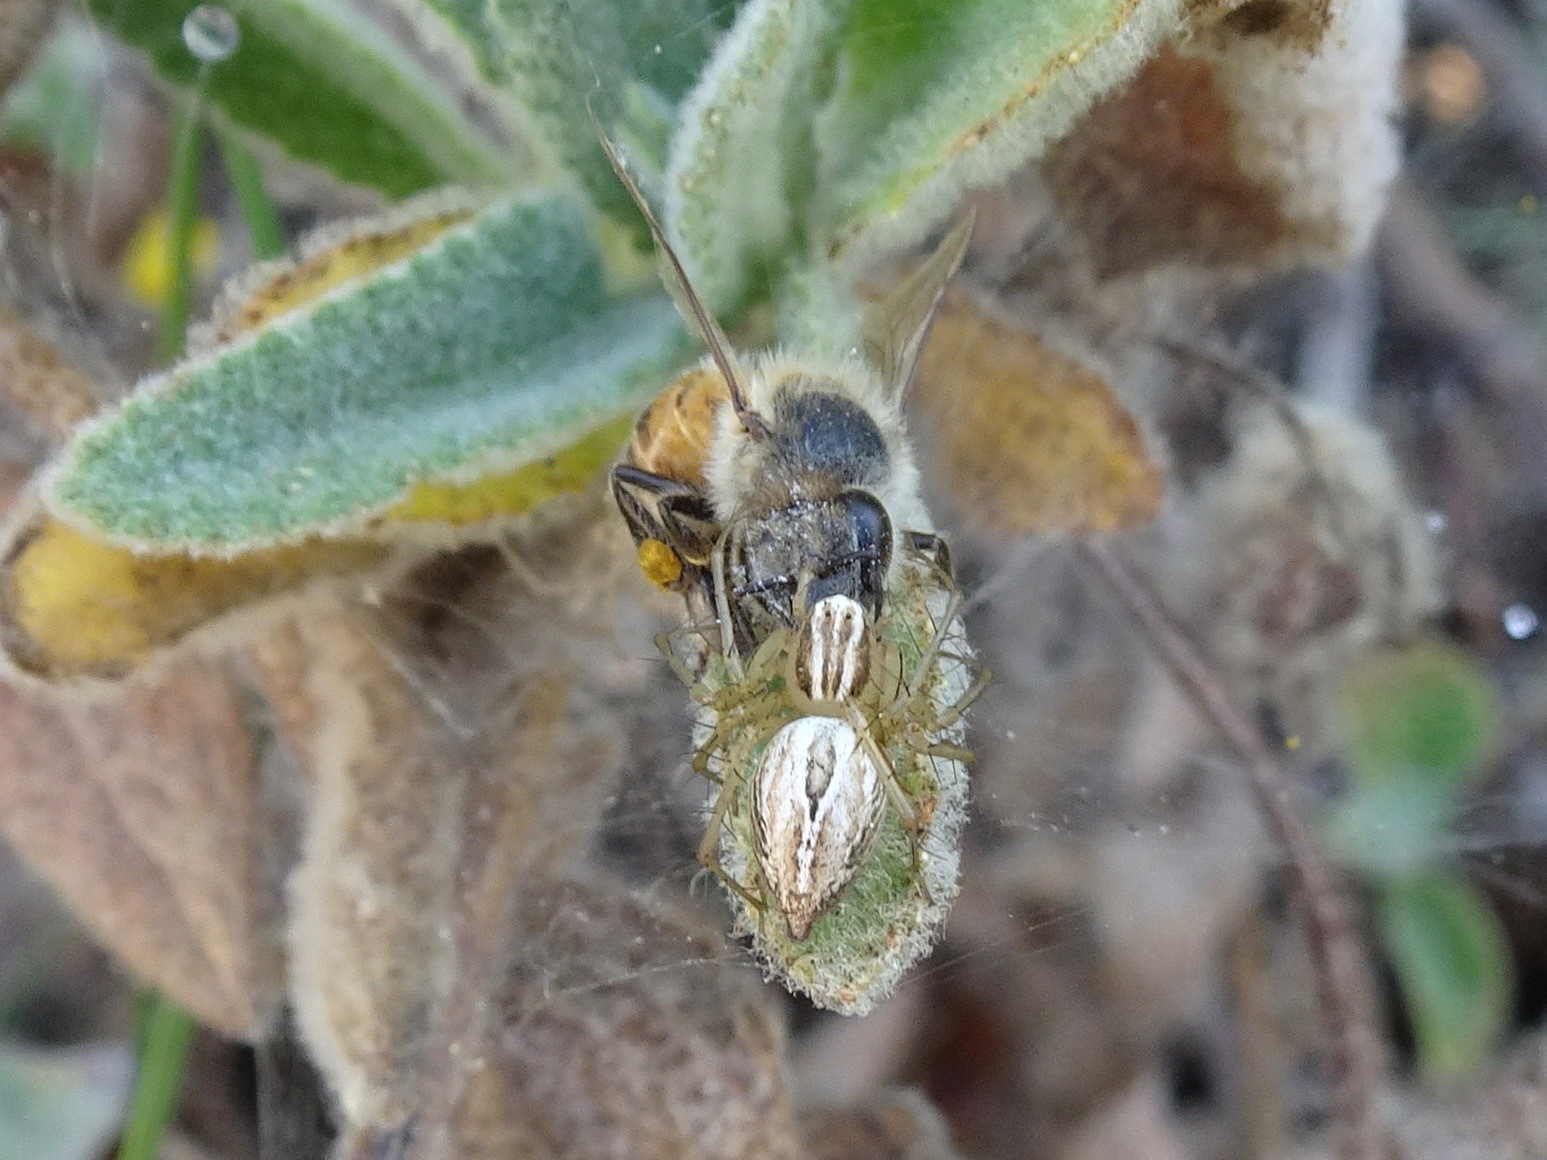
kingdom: Animalia
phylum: Arthropoda
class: Arachnida
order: Araneae
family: Oxyopidae
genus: Oxyopes
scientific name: Oxyopes salticus
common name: Lynx spiders
